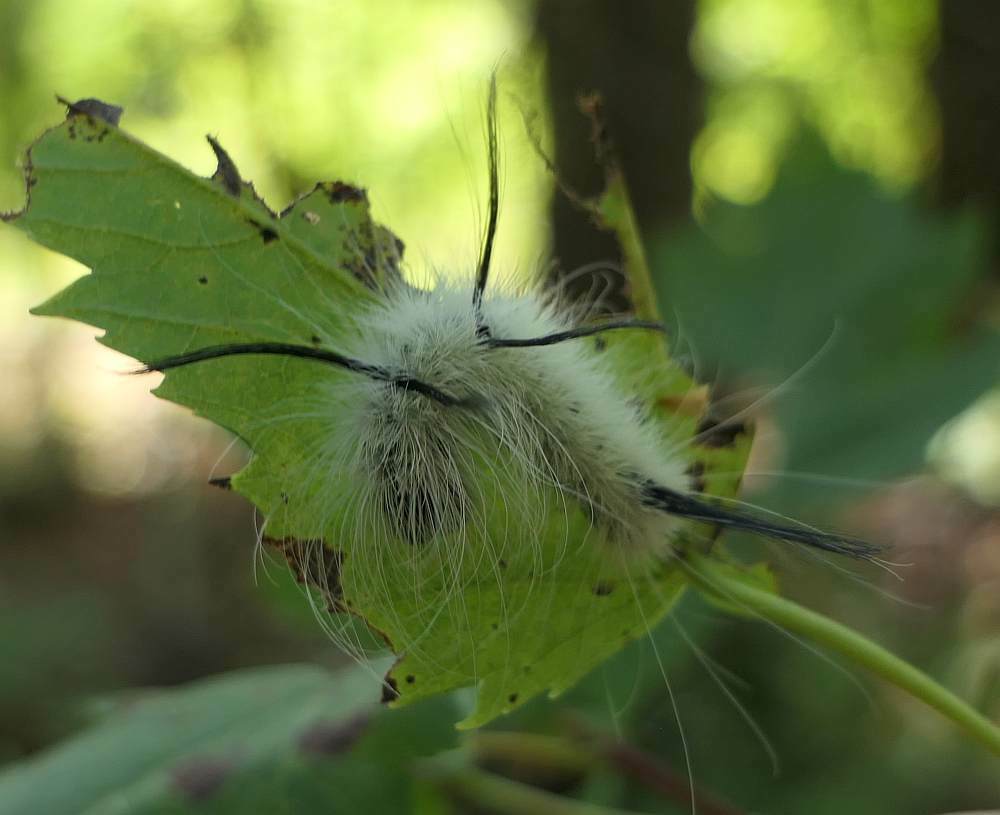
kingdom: Animalia
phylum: Arthropoda
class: Insecta
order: Lepidoptera
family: Noctuidae
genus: Acronicta
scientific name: Acronicta americana
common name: American dagger
